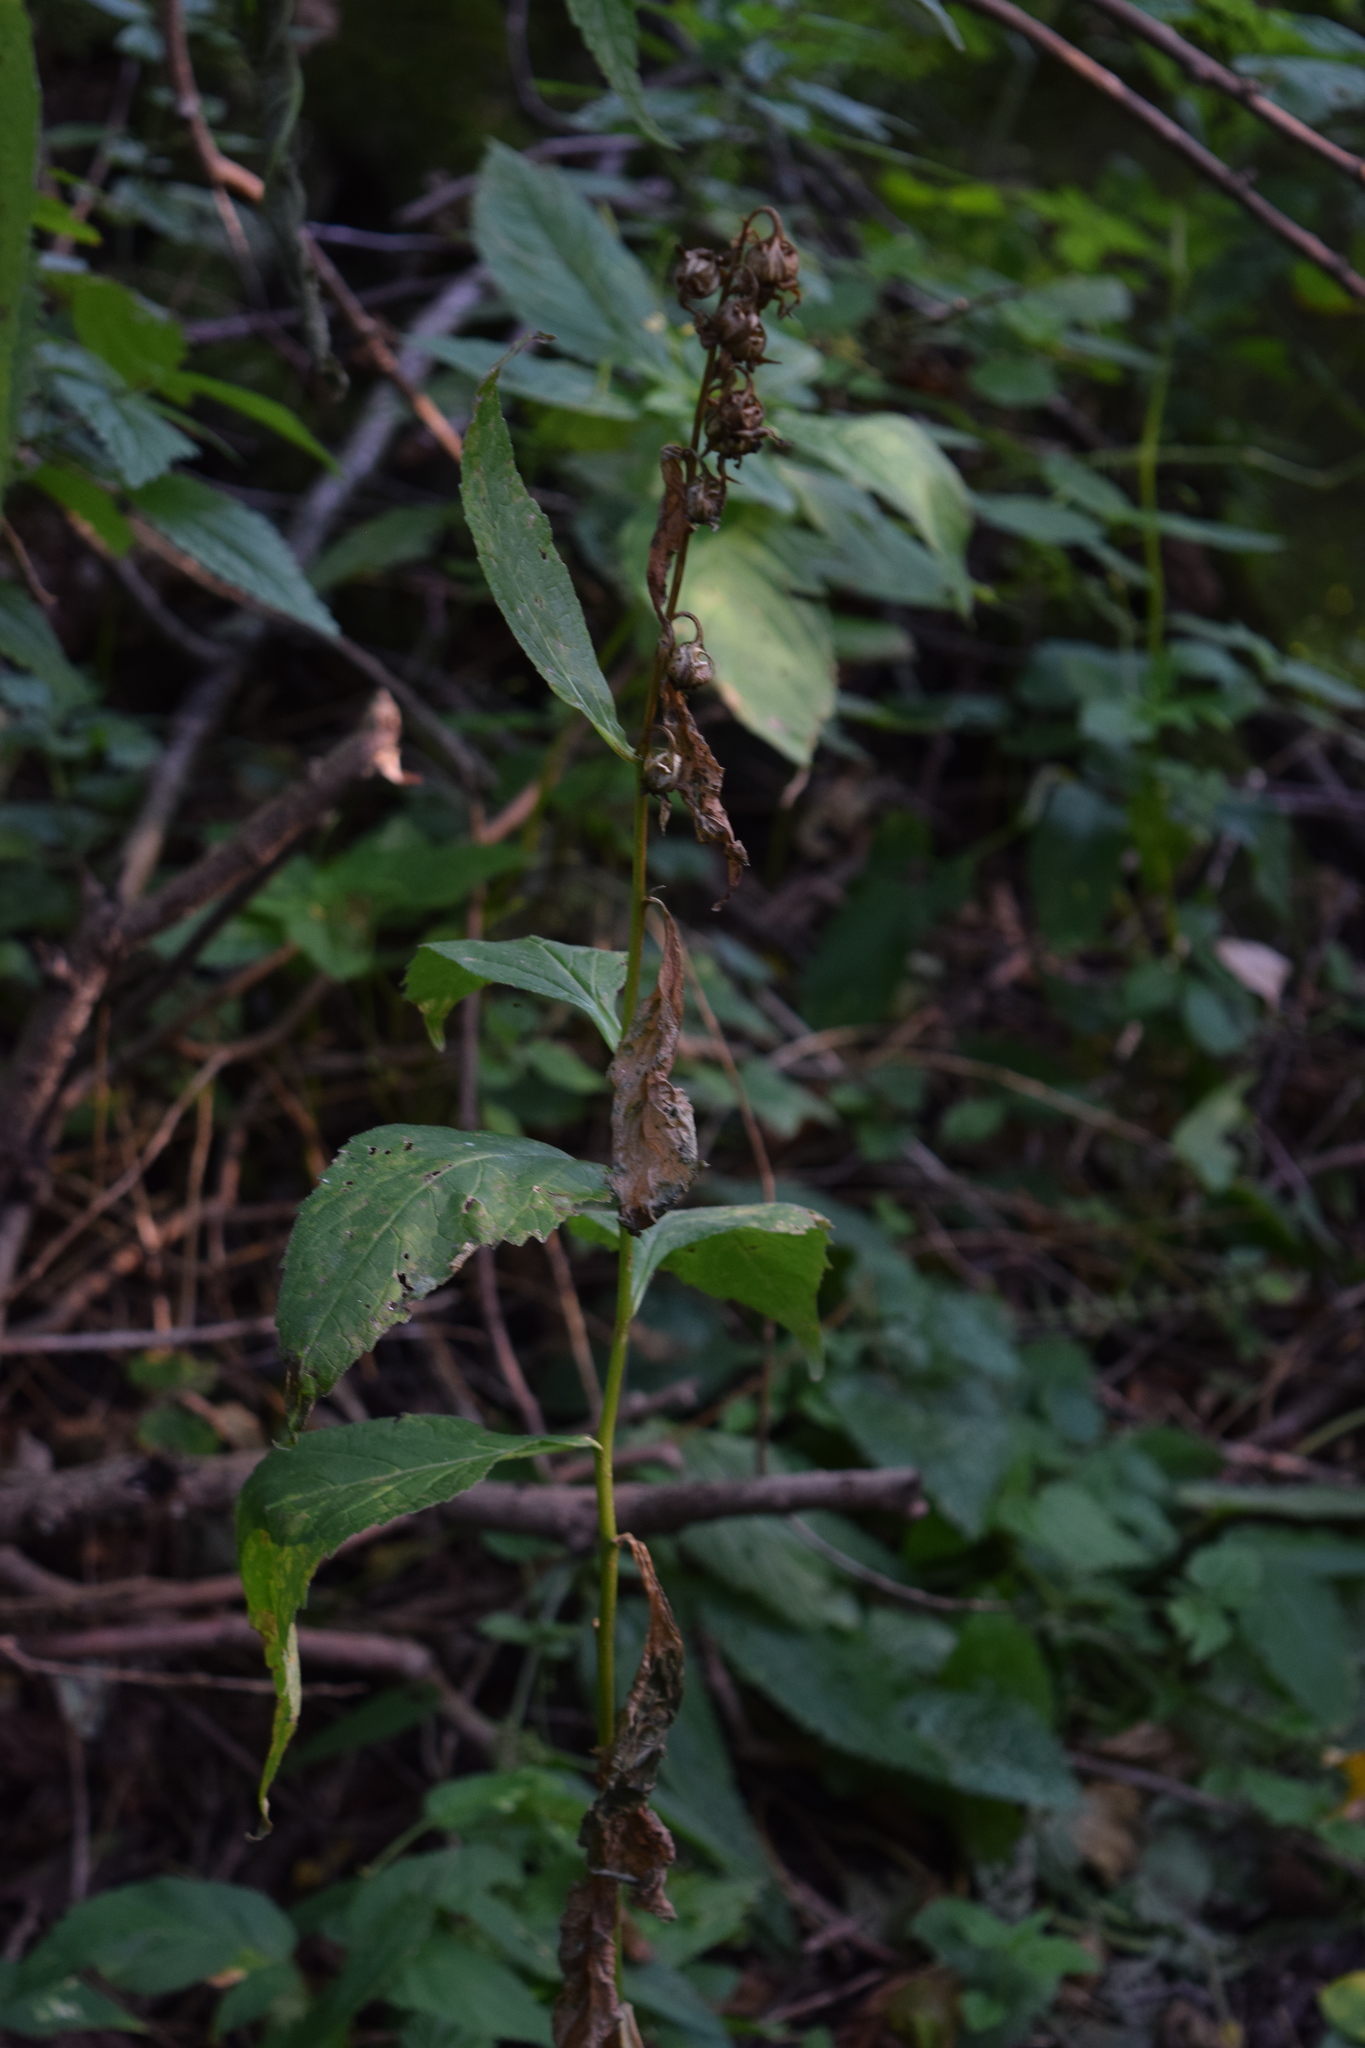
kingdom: Plantae
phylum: Tracheophyta
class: Magnoliopsida
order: Asterales
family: Campanulaceae
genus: Campanula
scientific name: Campanula latifolia
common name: Giant bellflower
